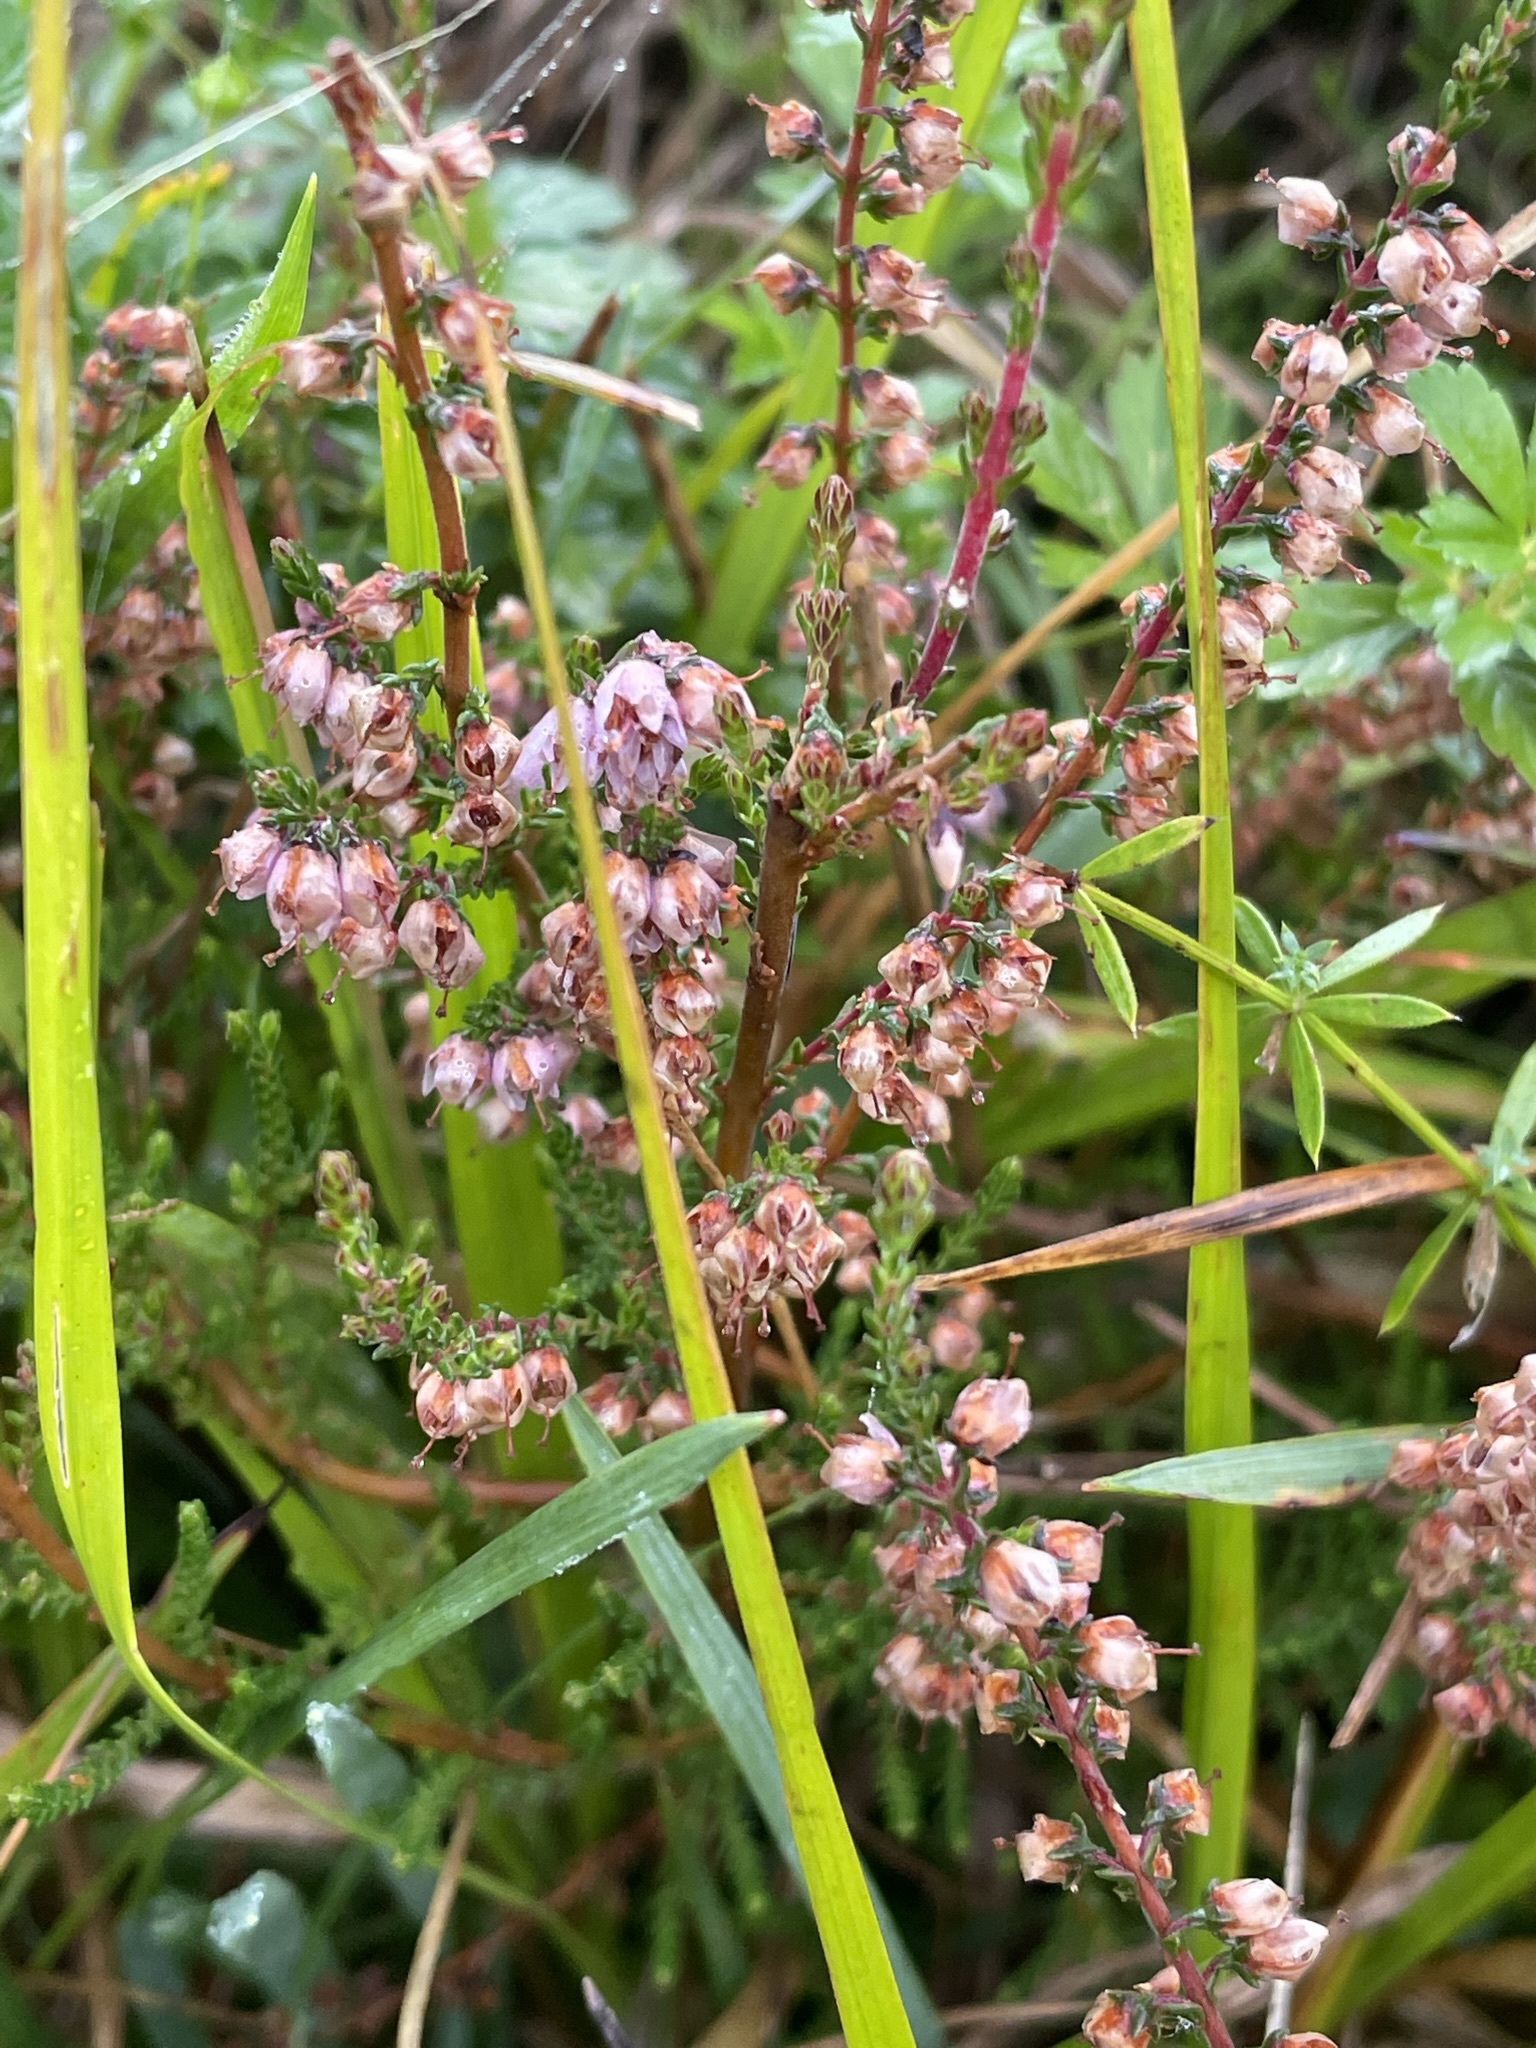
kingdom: Plantae
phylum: Tracheophyta
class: Magnoliopsida
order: Ericales
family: Ericaceae
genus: Calluna
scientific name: Calluna vulgaris
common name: Heather
